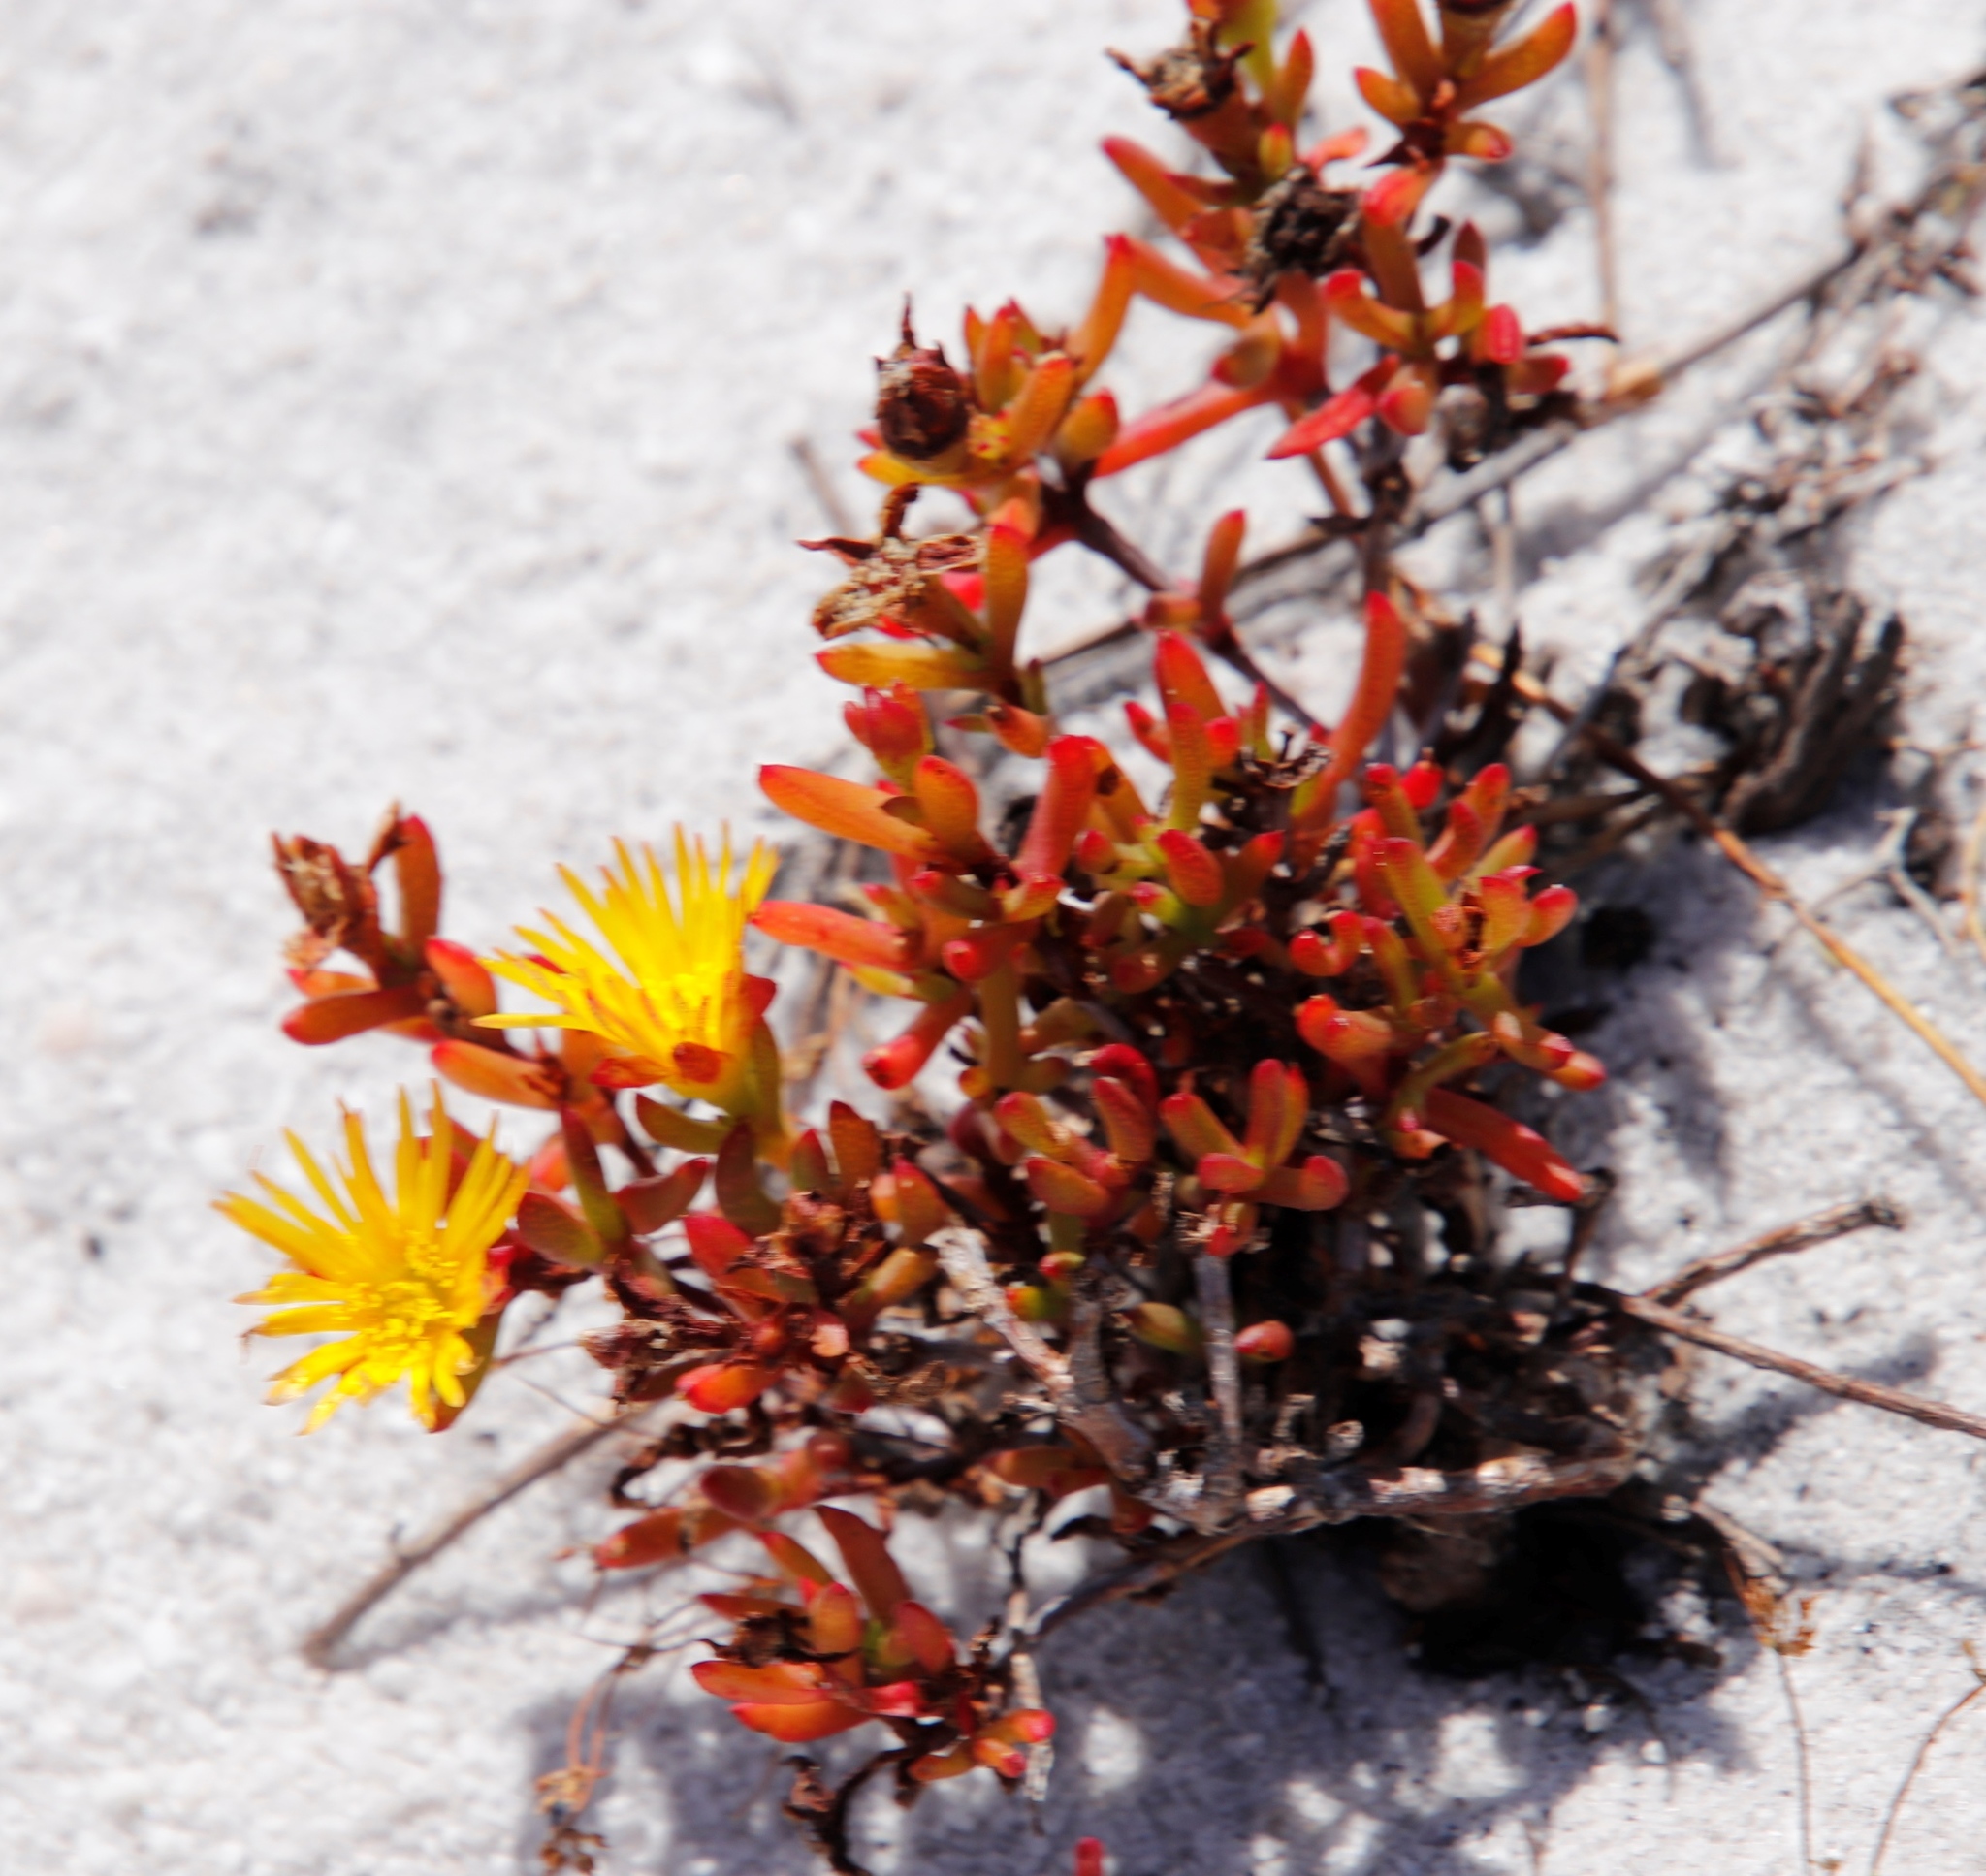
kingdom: Plantae
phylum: Tracheophyta
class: Magnoliopsida
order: Caryophyllales
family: Aizoaceae
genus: Lampranthus
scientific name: Lampranthus bicolor
